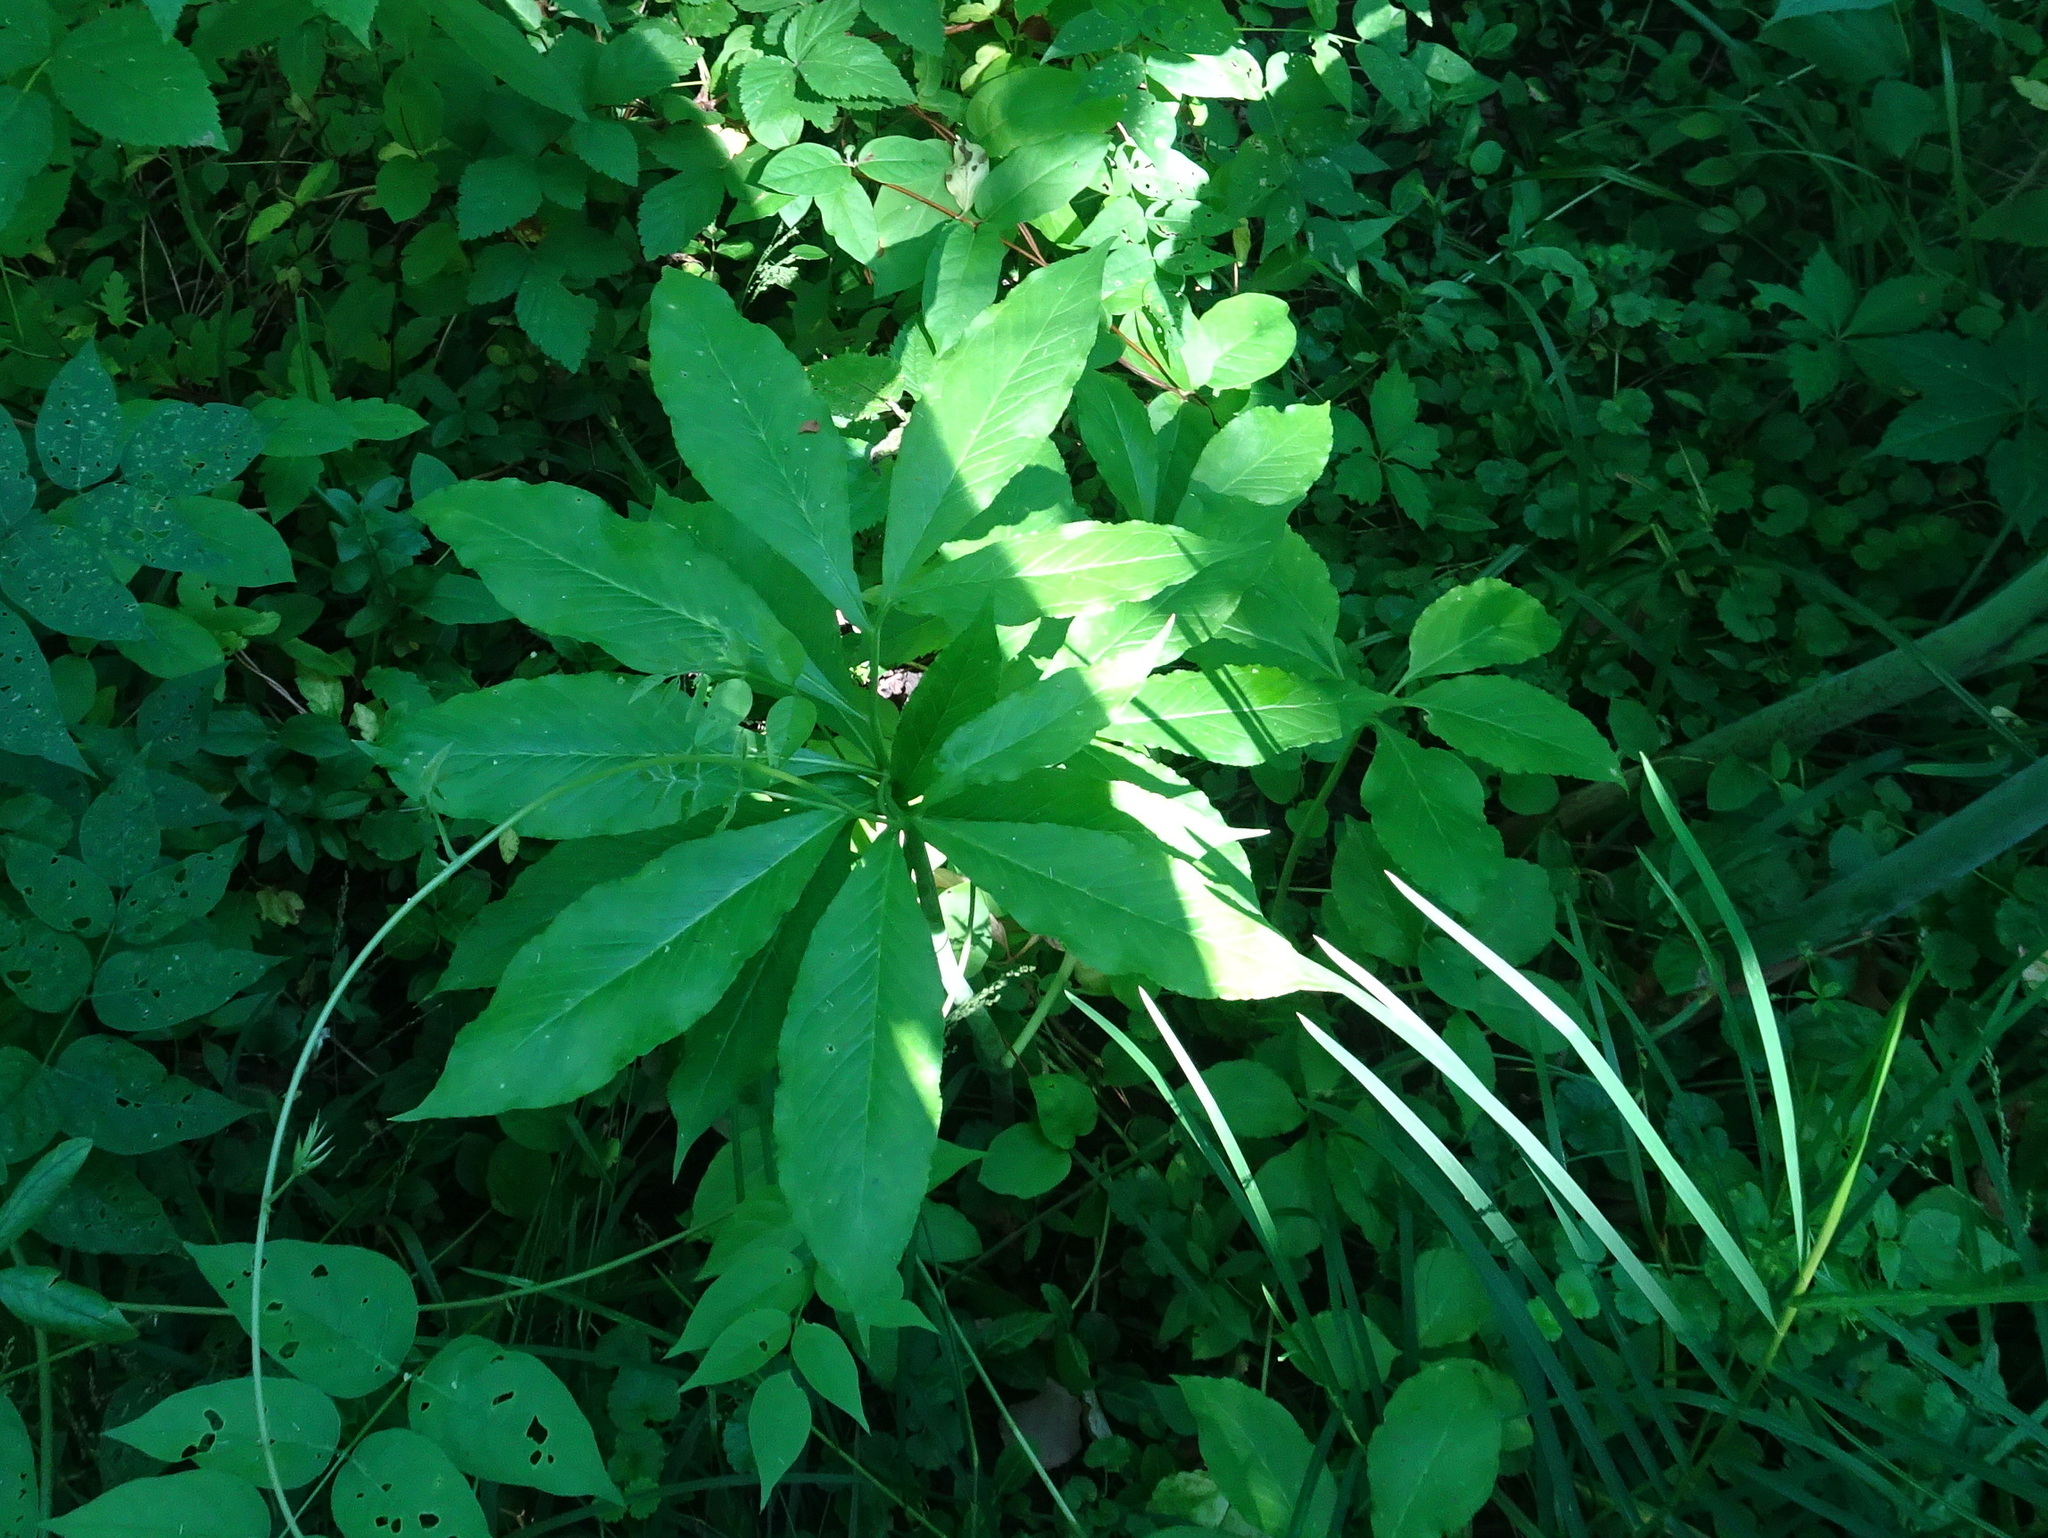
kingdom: Plantae
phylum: Tracheophyta
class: Liliopsida
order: Alismatales
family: Araceae
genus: Arisaema
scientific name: Arisaema dracontium
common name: Dragon-arum
